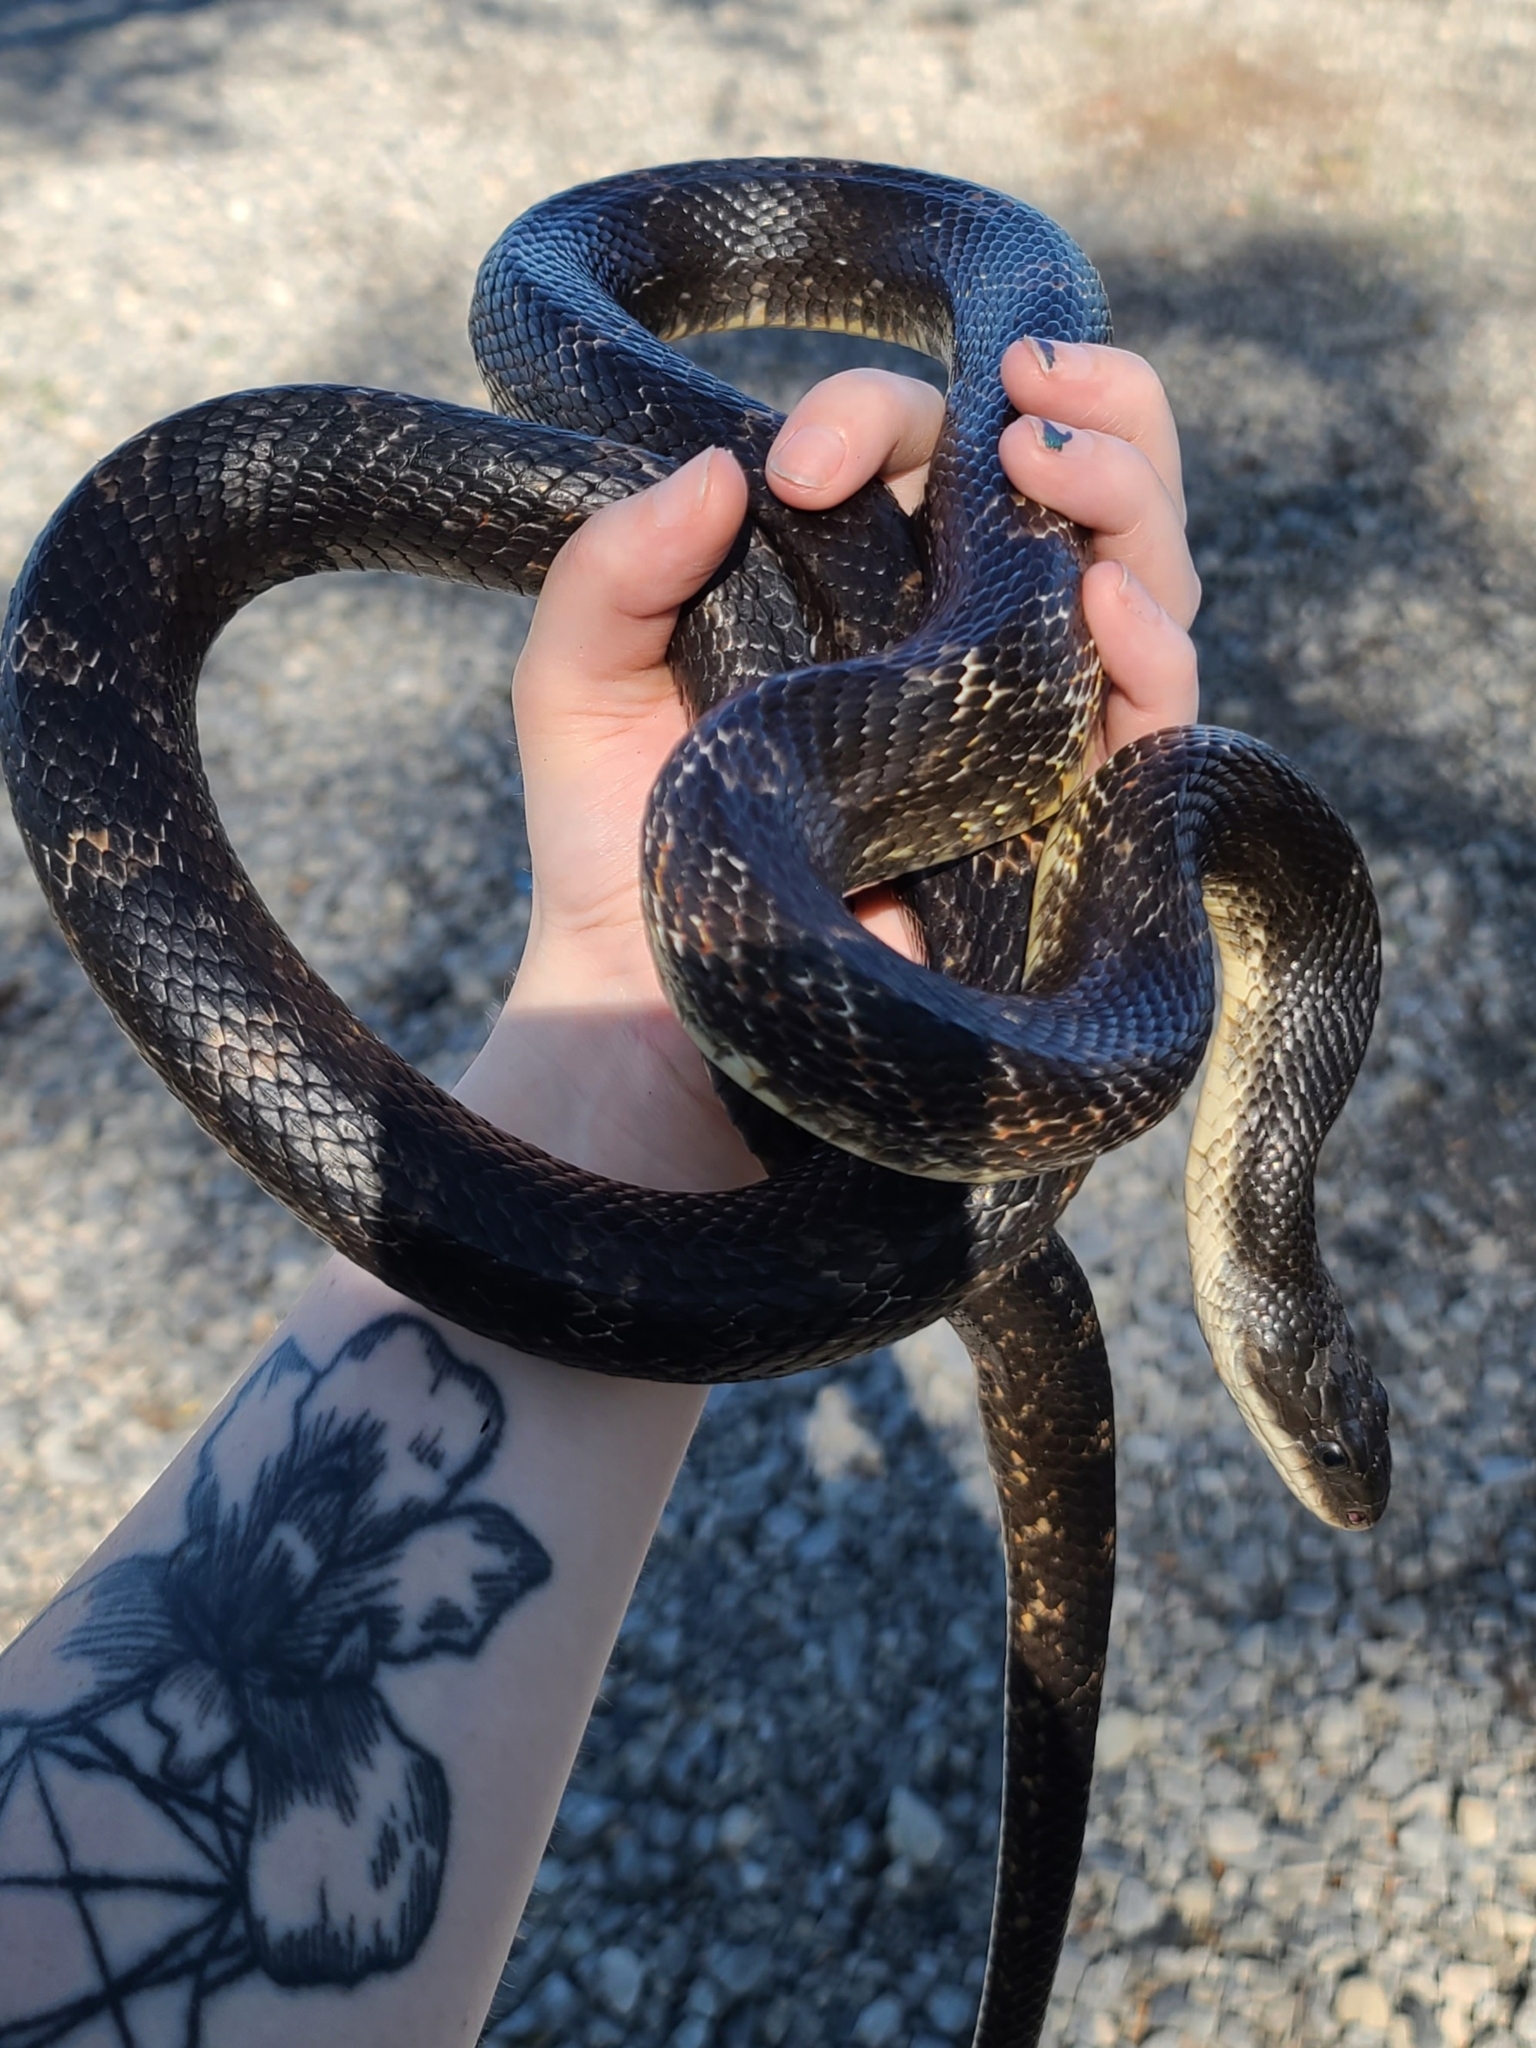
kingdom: Animalia
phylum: Chordata
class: Squamata
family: Colubridae
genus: Pantherophis
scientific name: Pantherophis obsoletus
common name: Black rat snake
